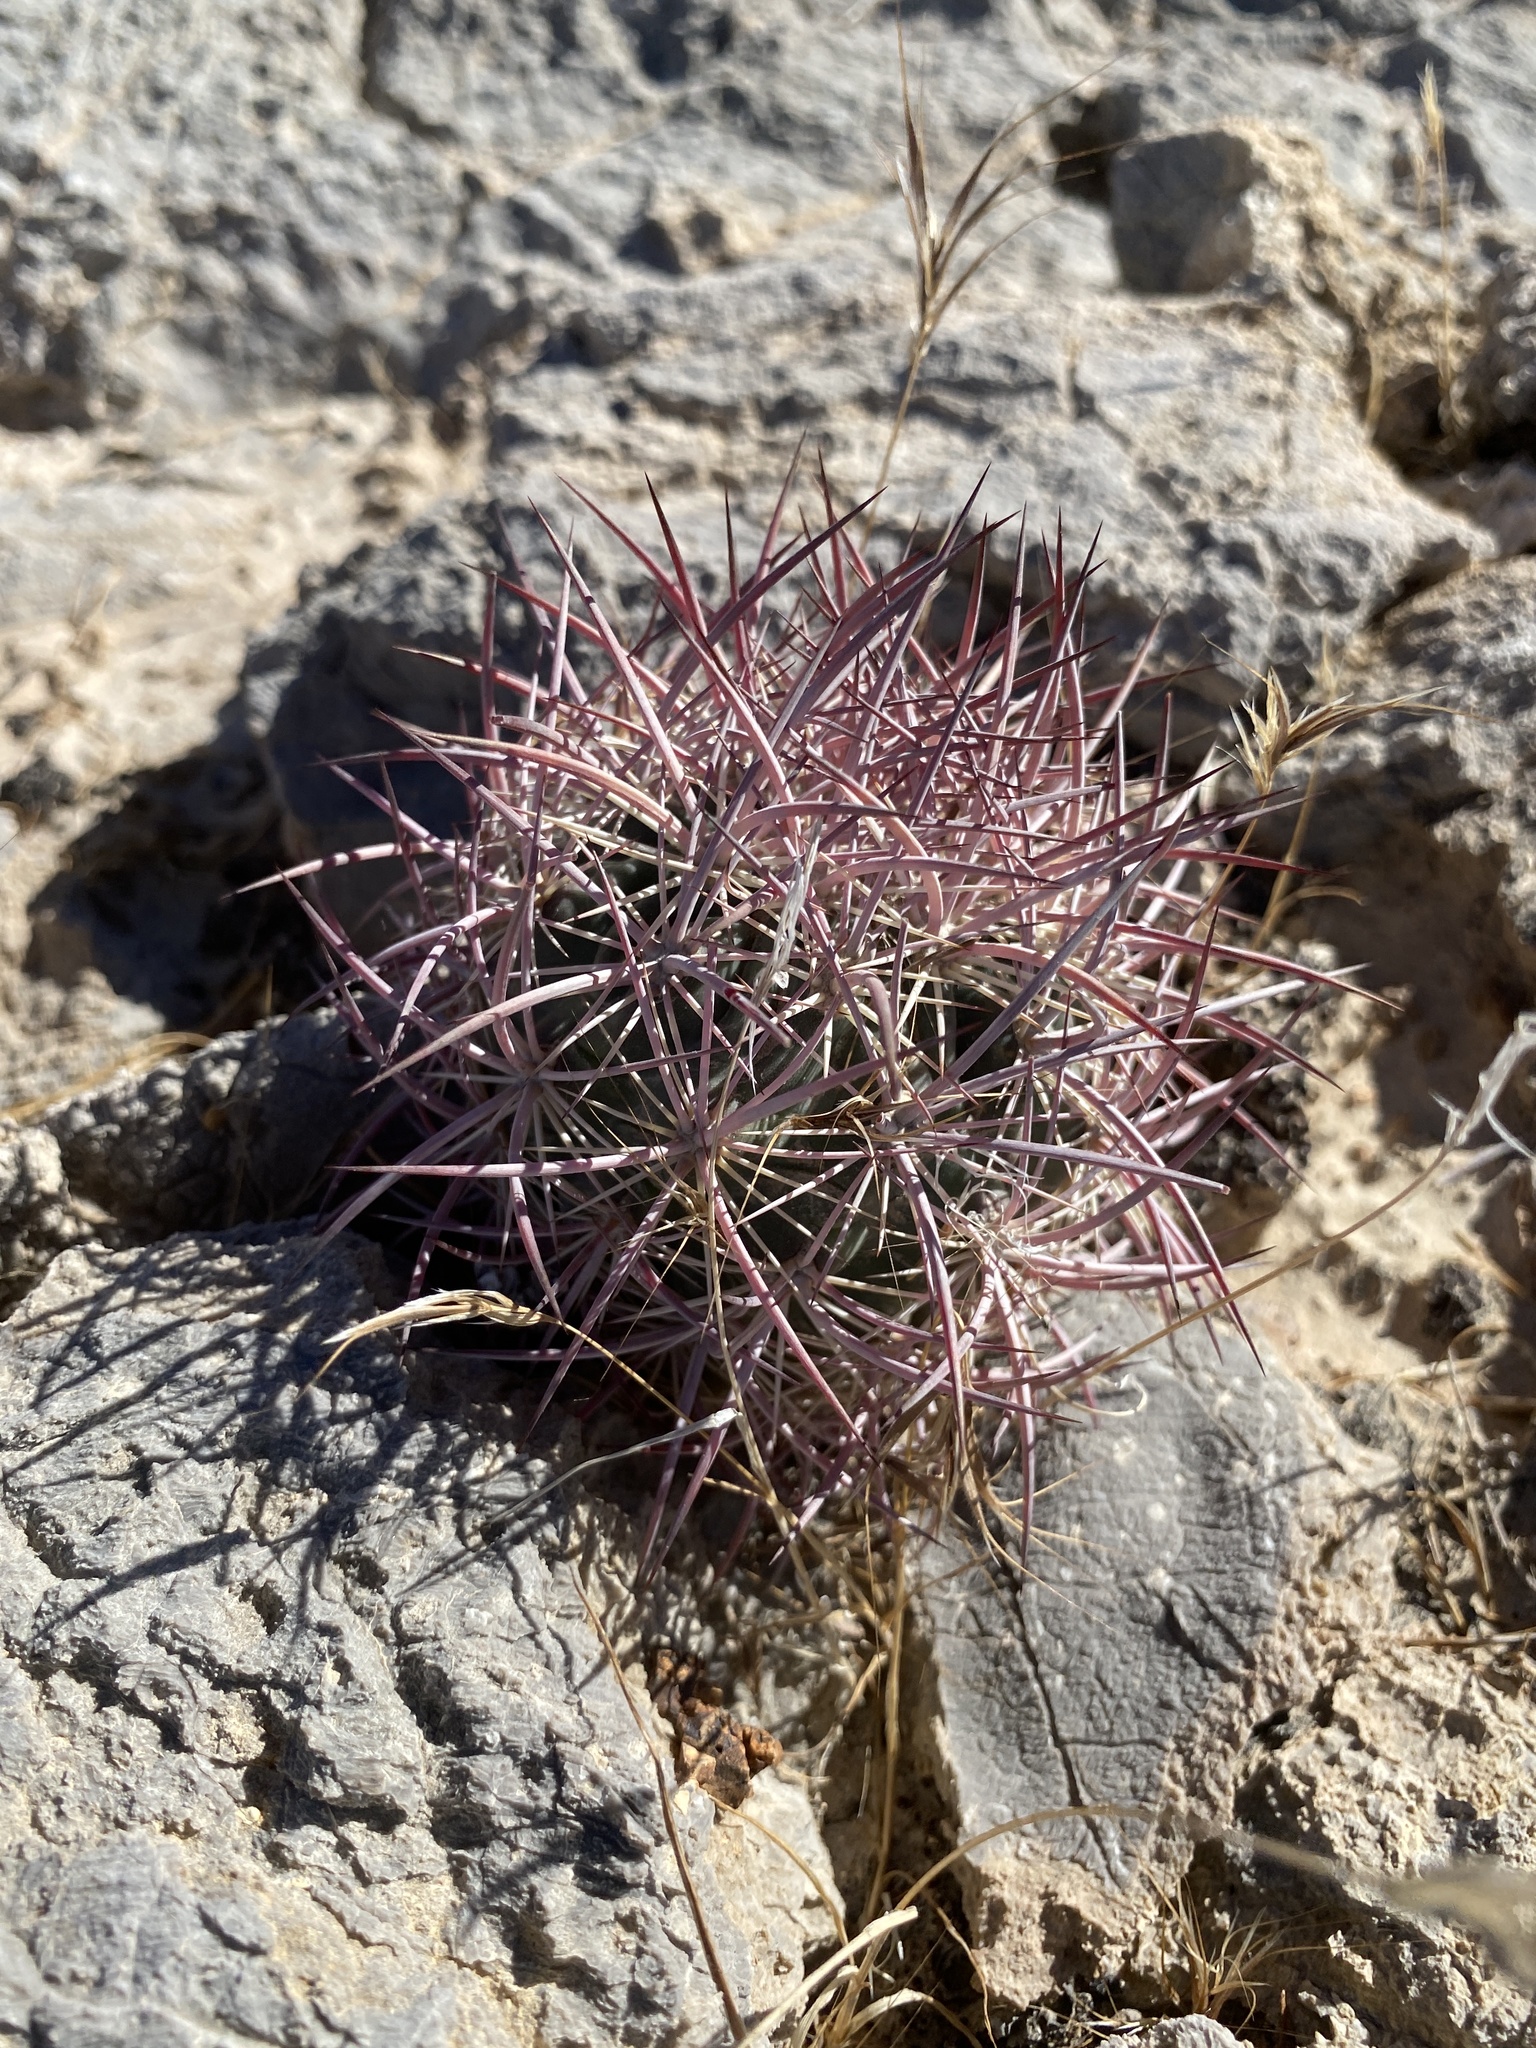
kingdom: Plantae
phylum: Tracheophyta
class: Magnoliopsida
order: Caryophyllales
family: Cactaceae
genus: Sclerocactus
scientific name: Sclerocactus johnsonii
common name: Eight-spine fishhook cactus
